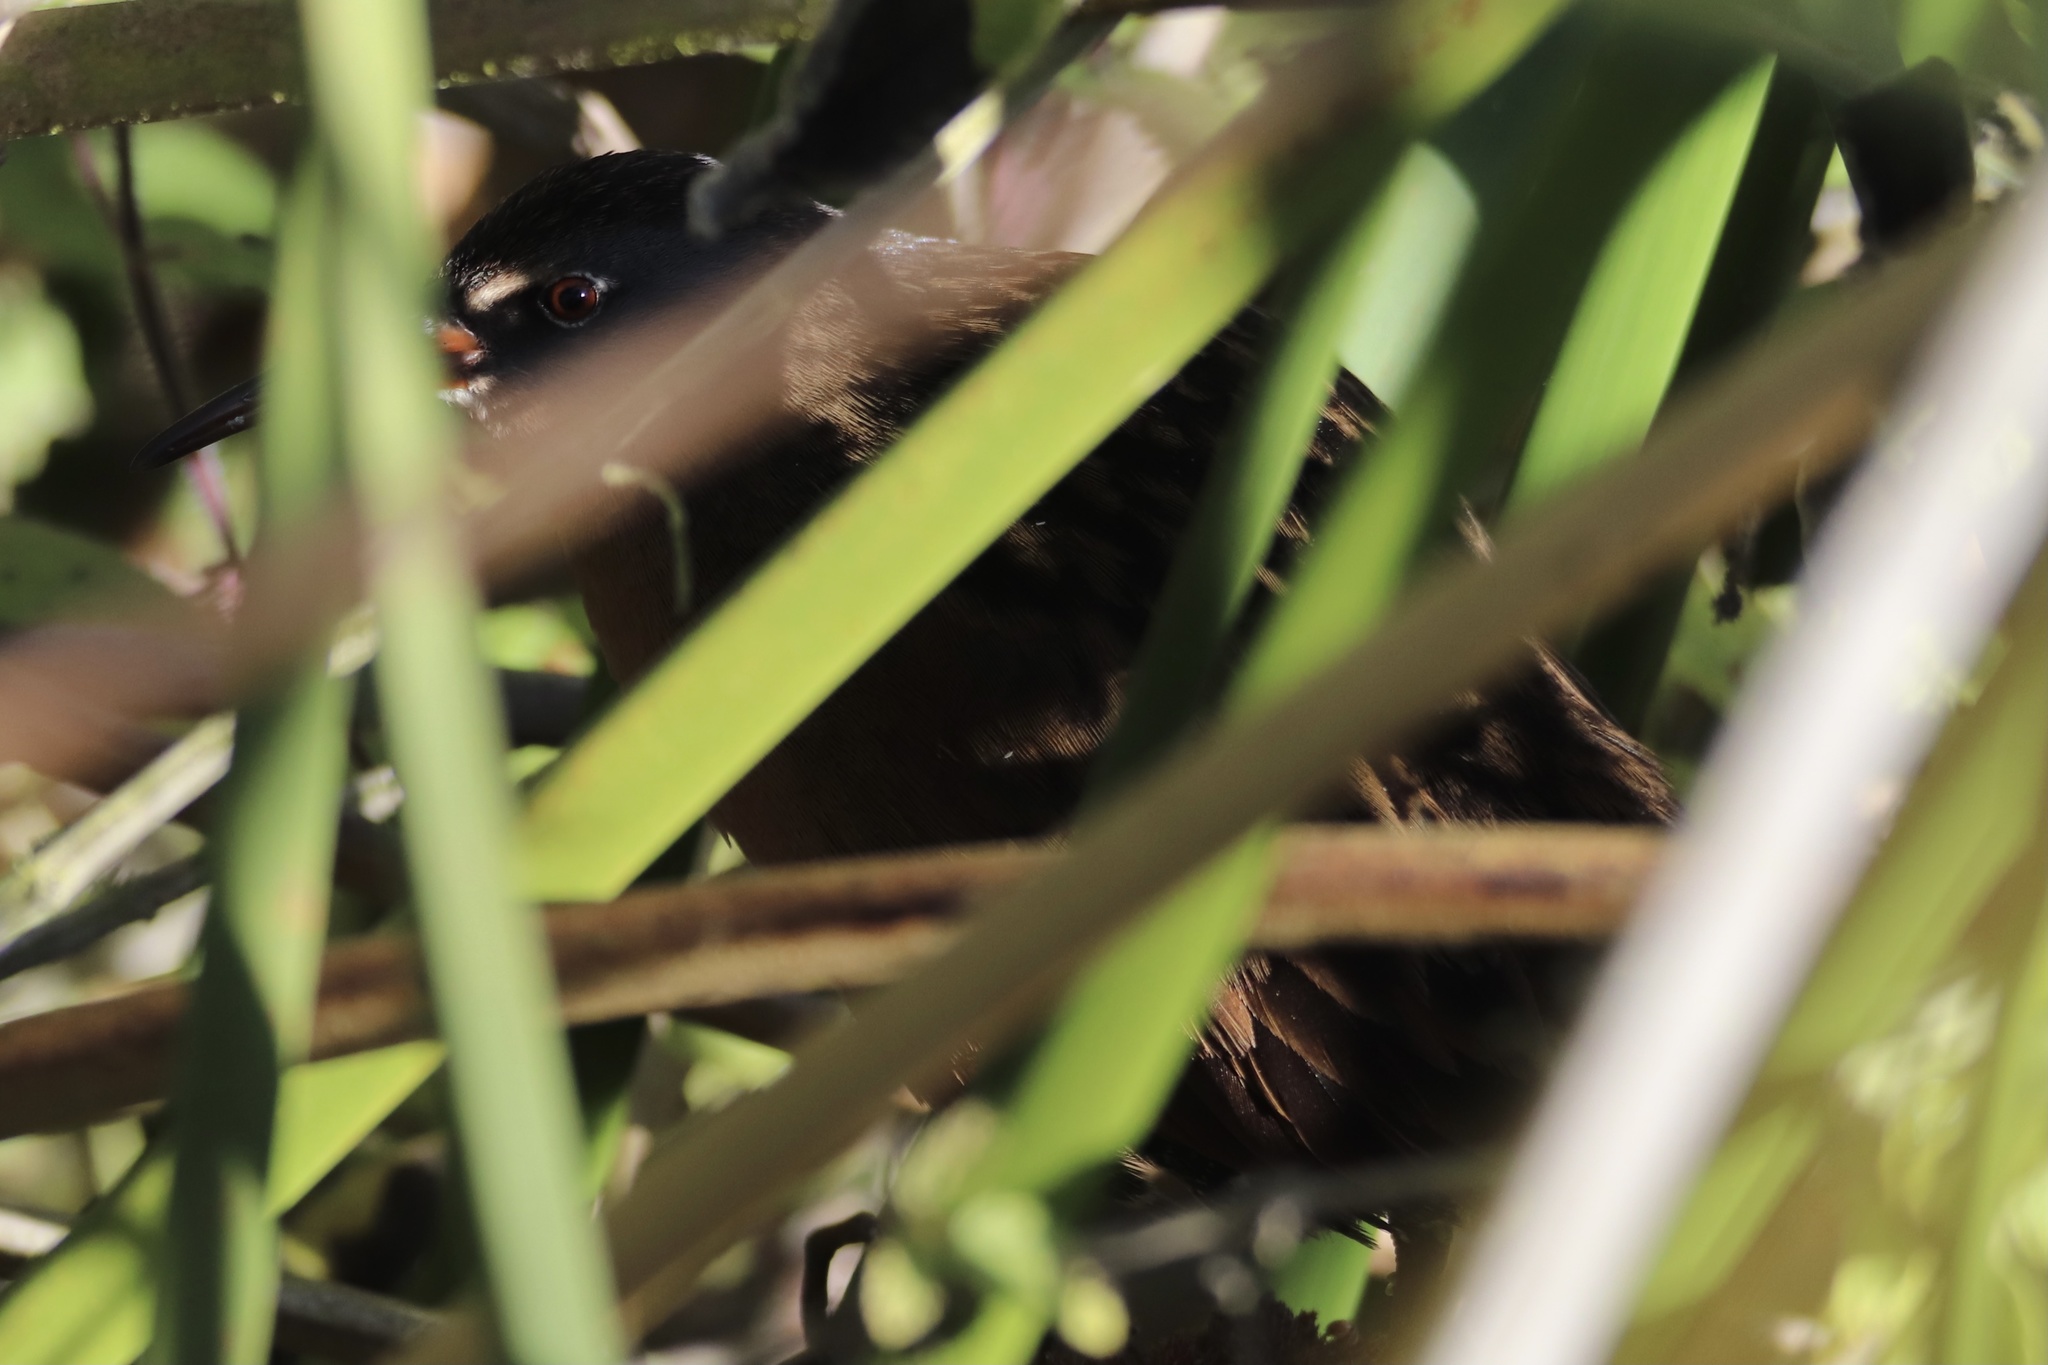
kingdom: Animalia
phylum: Chordata
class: Aves
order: Gruiformes
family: Rallidae
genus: Rallus
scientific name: Rallus limicola
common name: Virginia rail
